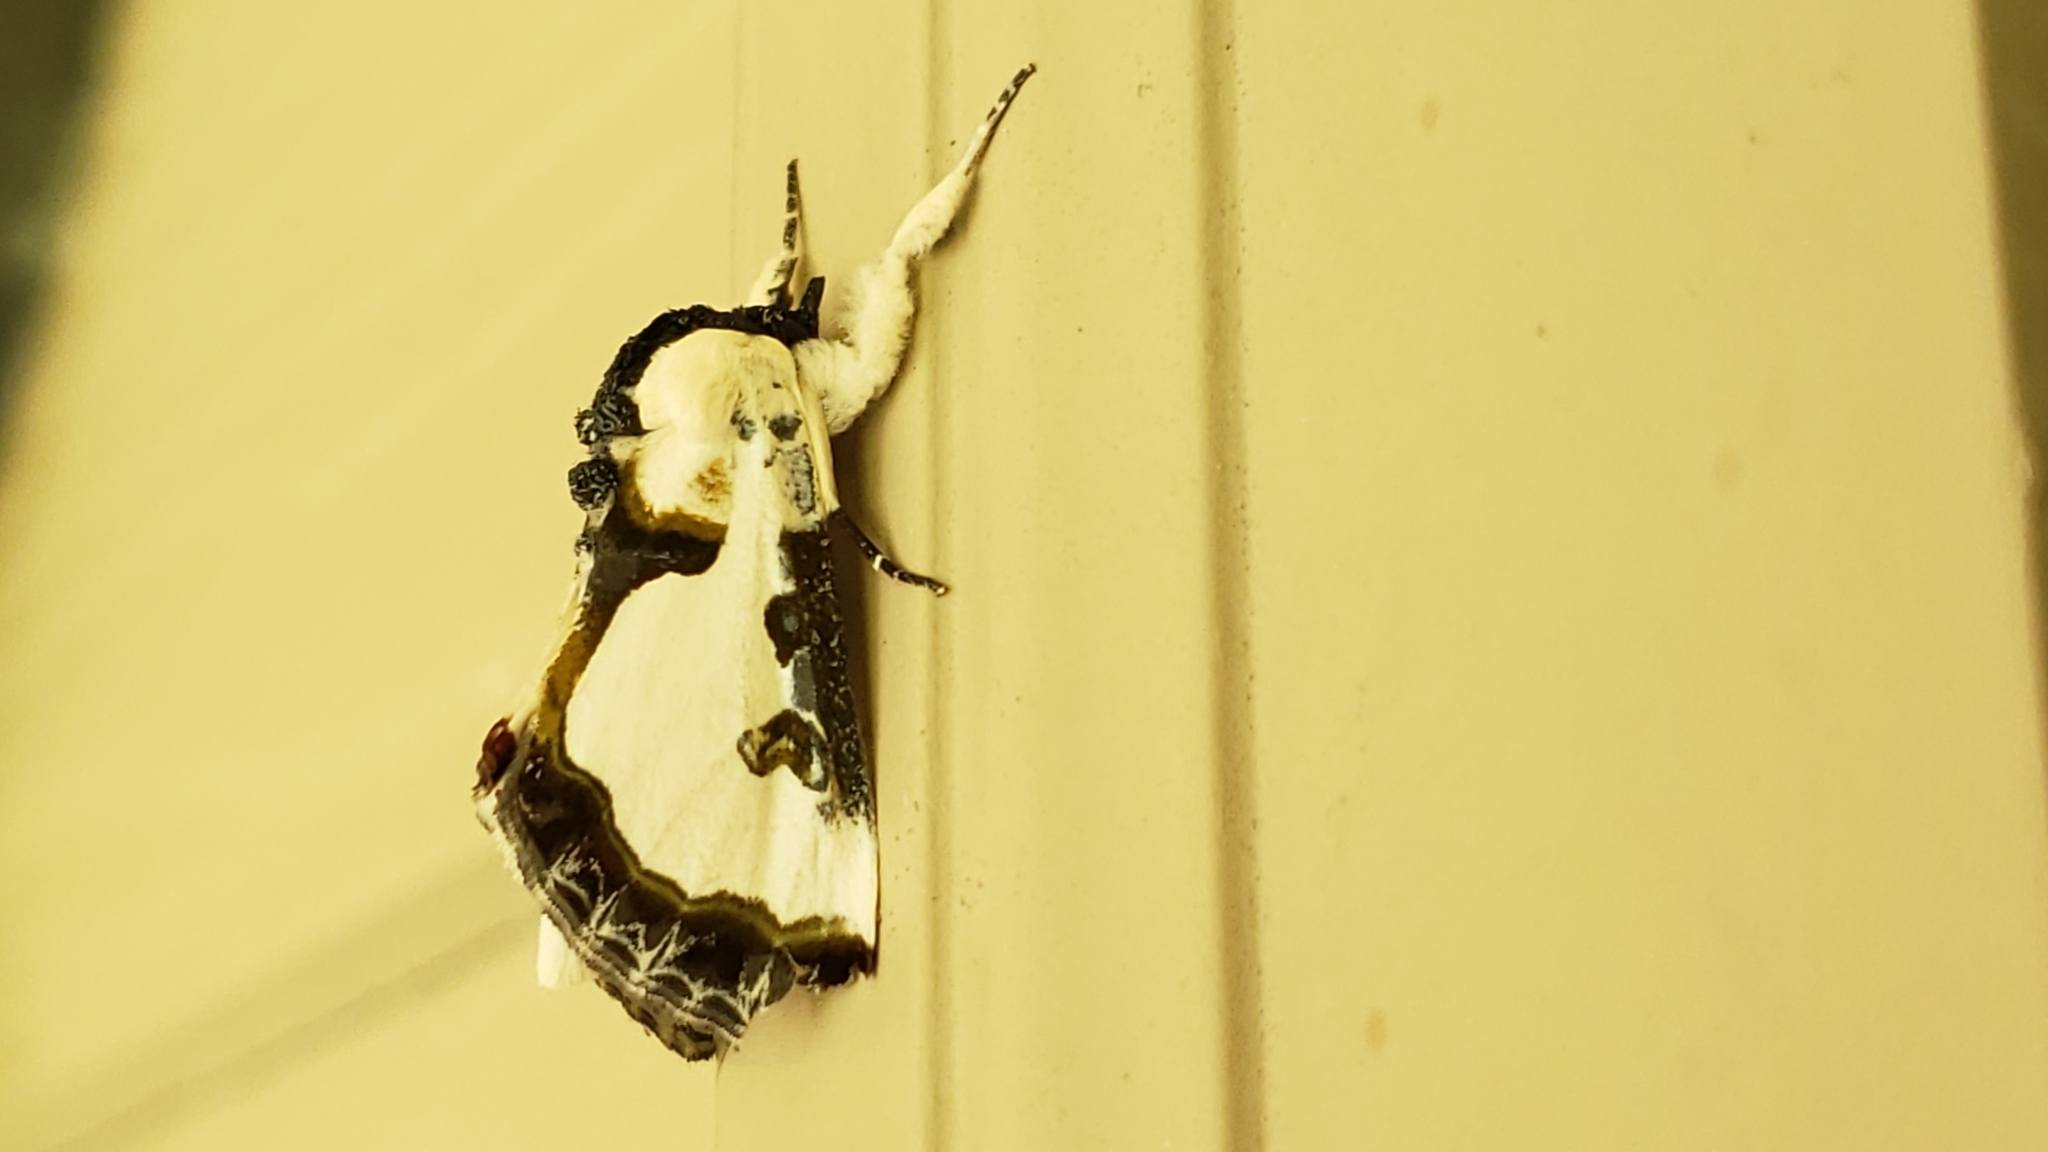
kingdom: Animalia
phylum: Arthropoda
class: Insecta
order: Lepidoptera
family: Noctuidae
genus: Xerociris
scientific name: Xerociris wilsonii
